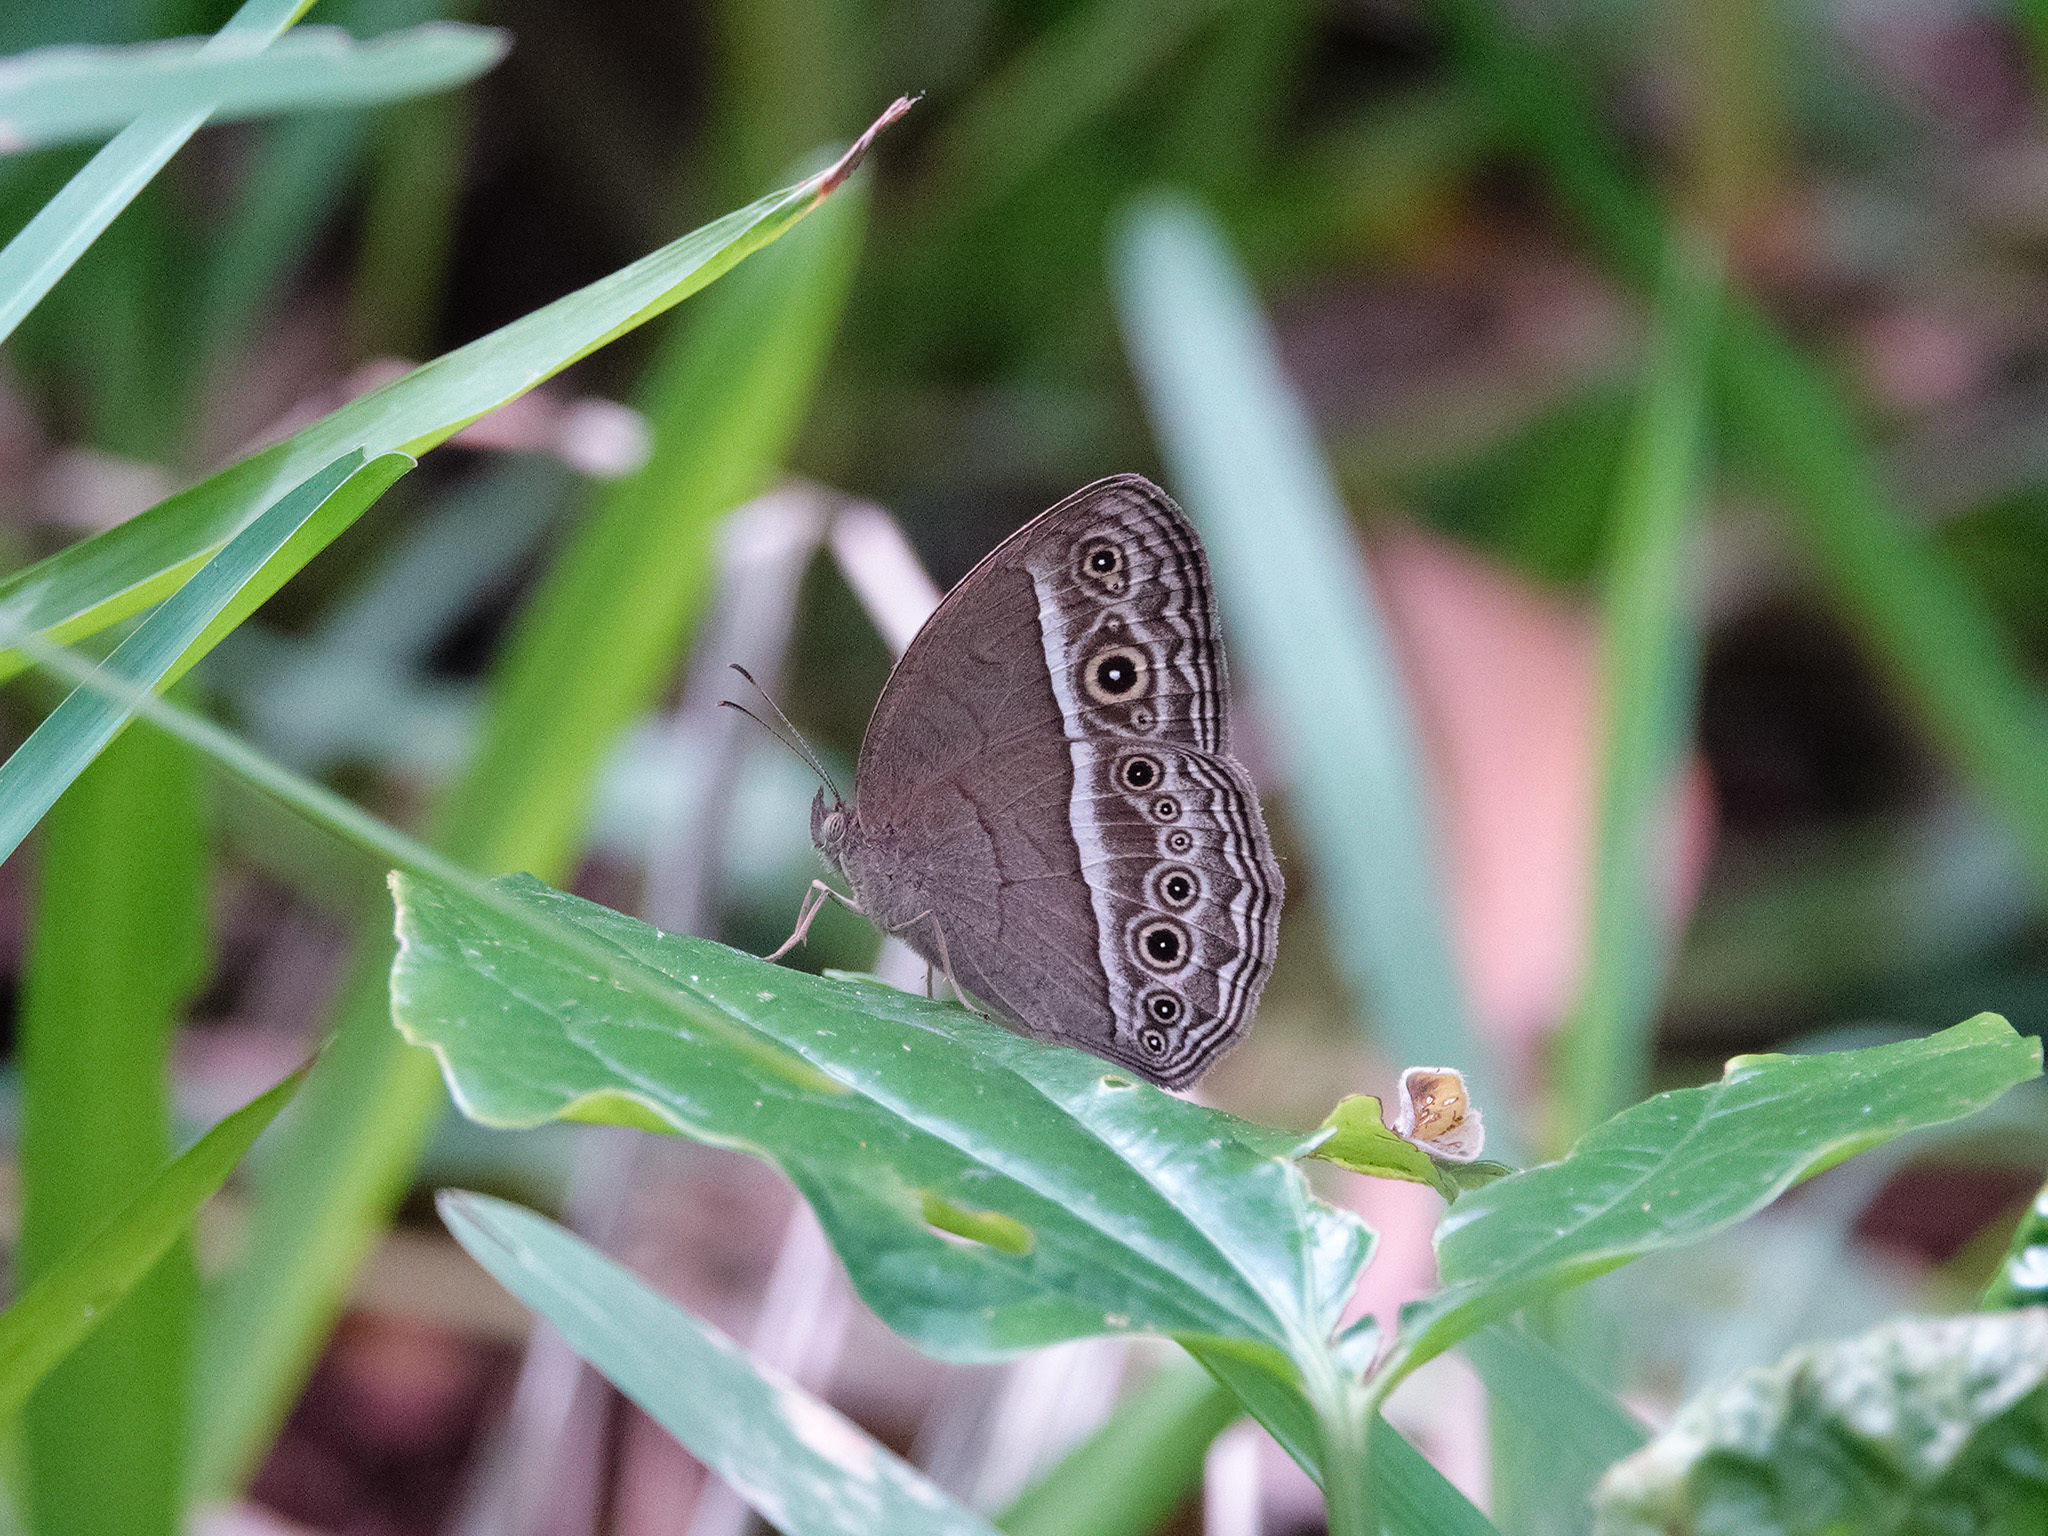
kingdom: Animalia
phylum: Arthropoda
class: Insecta
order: Lepidoptera
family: Nymphalidae
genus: Mycalesis
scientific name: Mycalesis perseoides
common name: Burmese bushbrown
